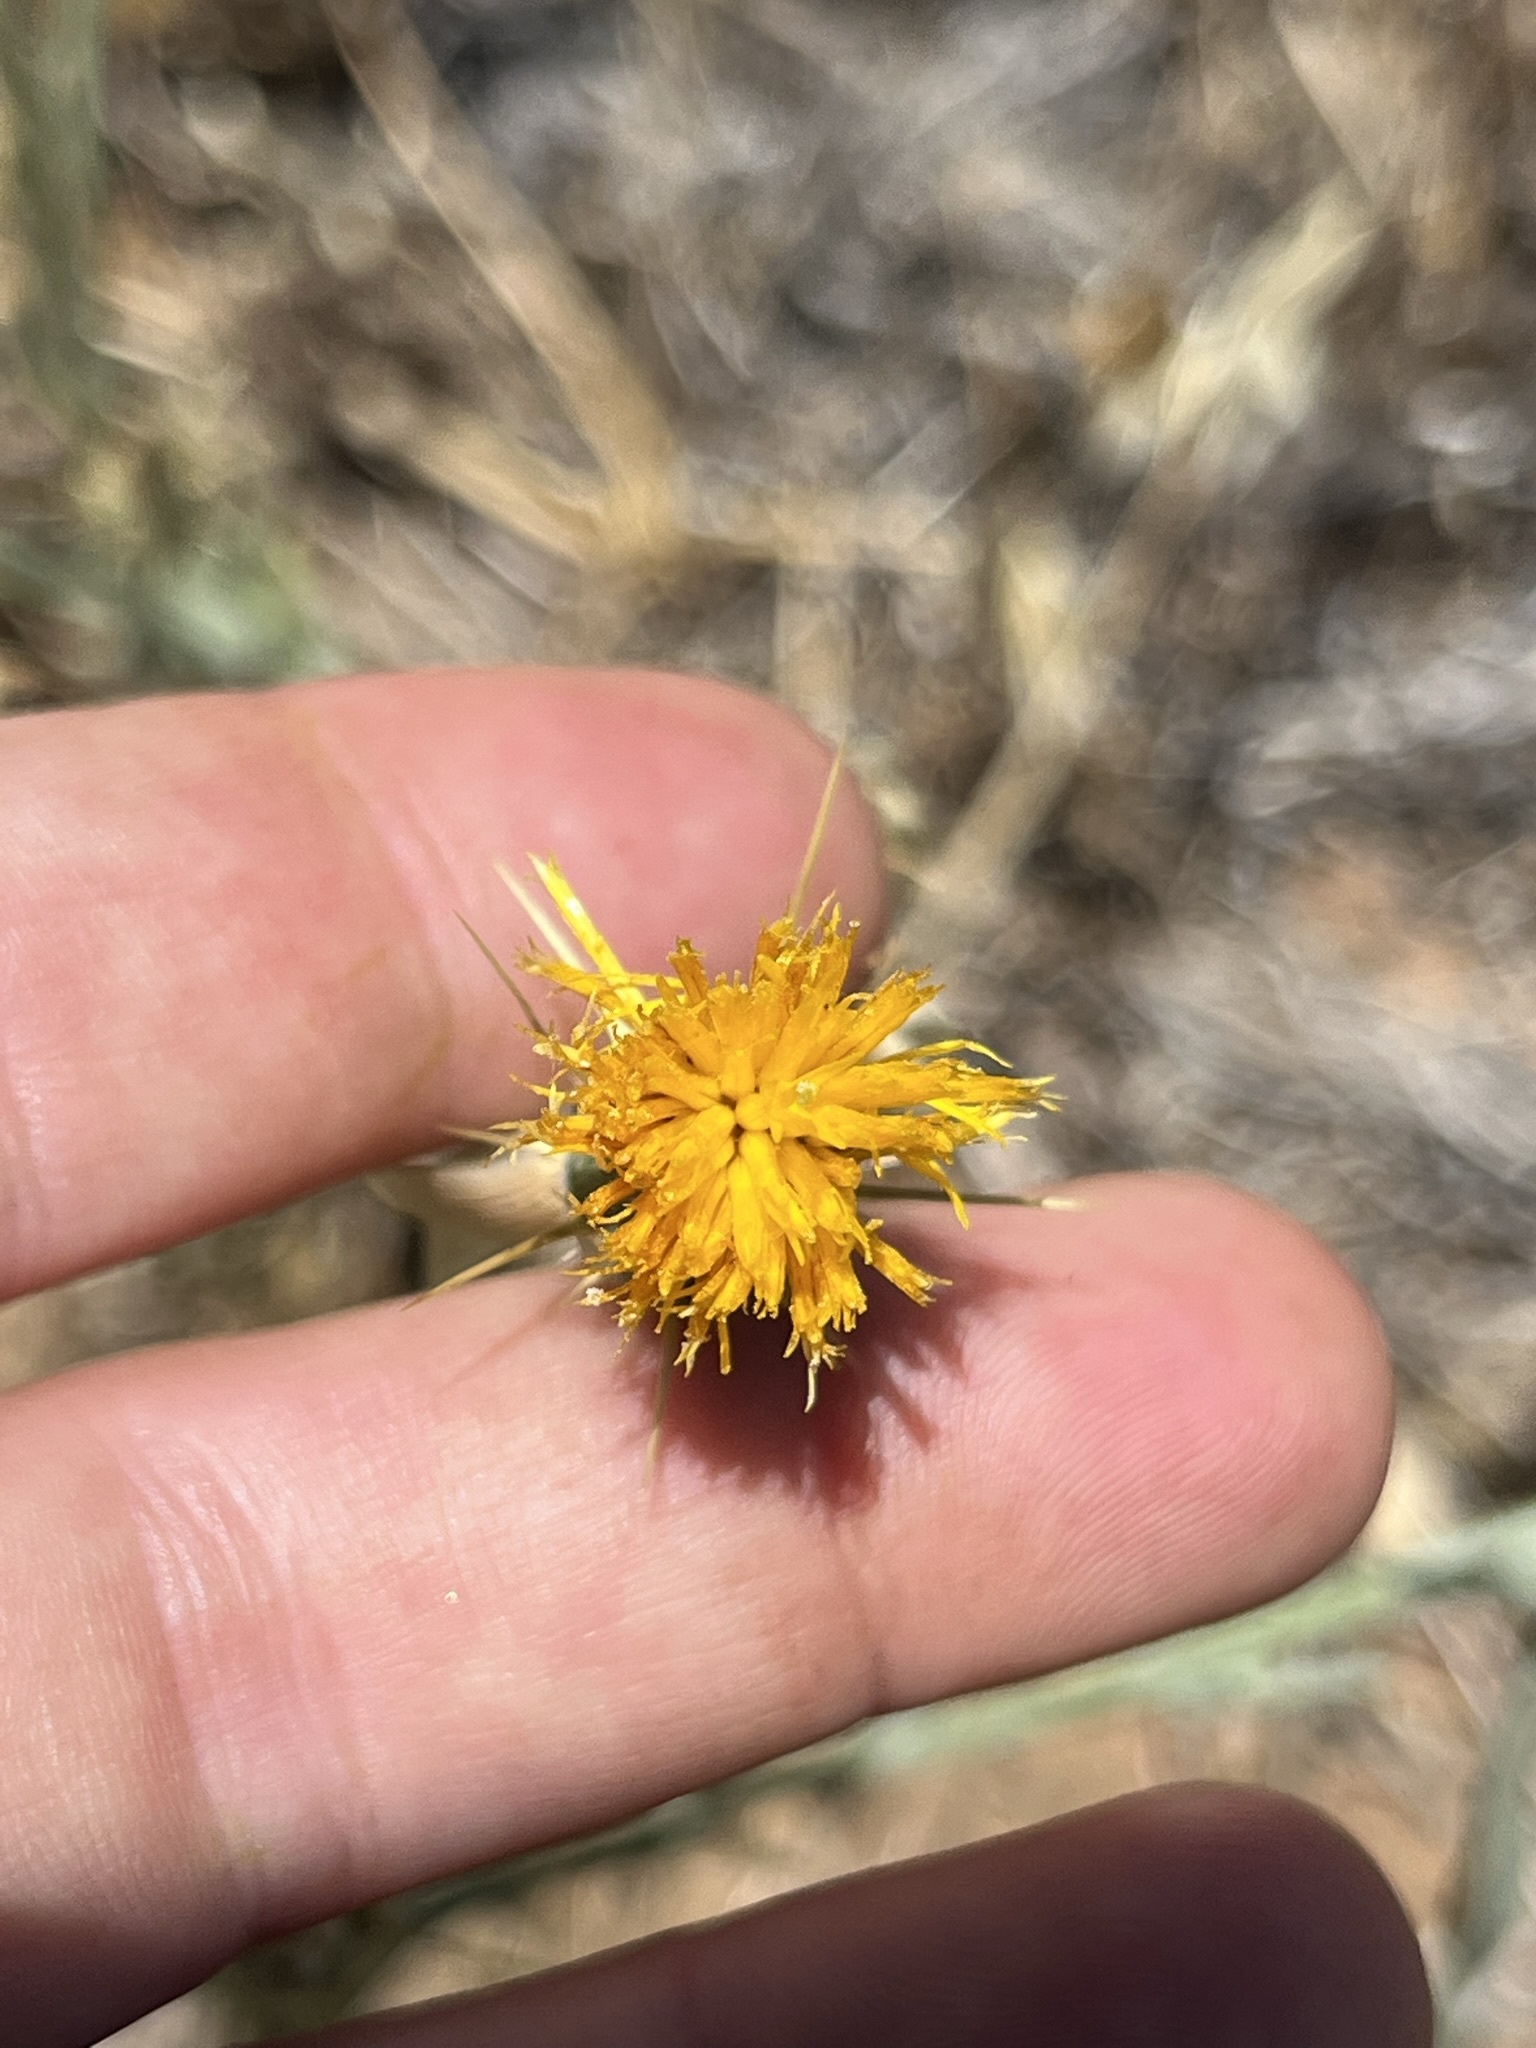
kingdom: Plantae
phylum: Tracheophyta
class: Magnoliopsida
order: Asterales
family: Asteraceae
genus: Centaurea
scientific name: Centaurea solstitialis
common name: Yellow star-thistle
